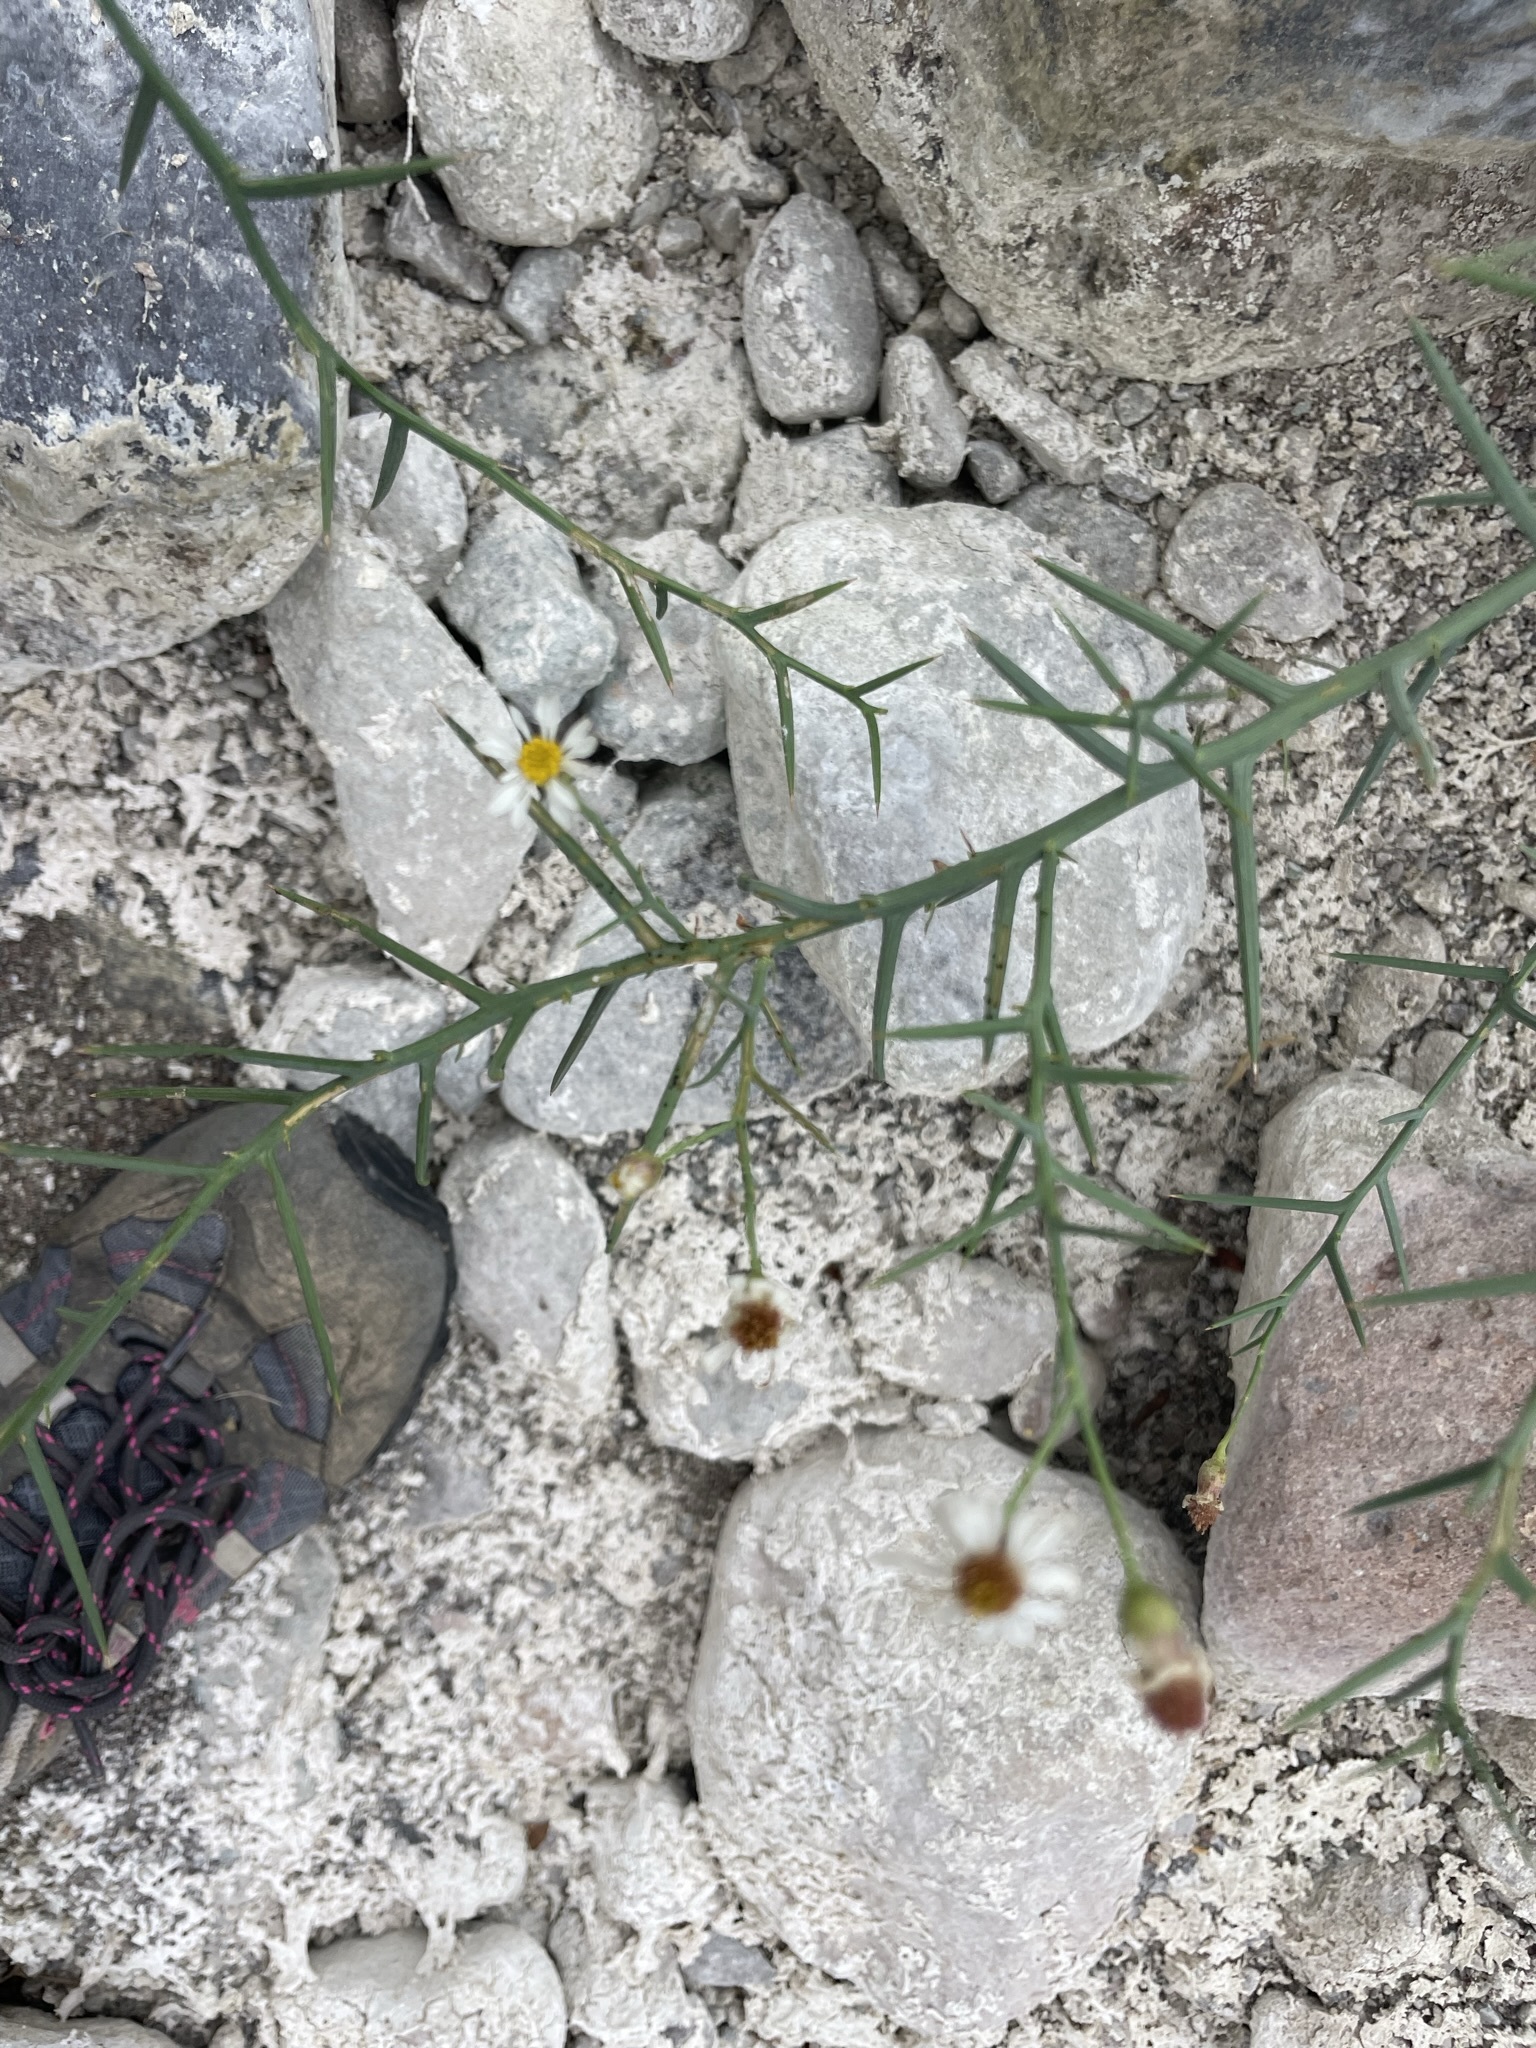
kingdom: Plantae
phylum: Tracheophyta
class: Magnoliopsida
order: Asterales
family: Asteraceae
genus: Chloracantha
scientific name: Chloracantha spinosa
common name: Mexican devilweed
